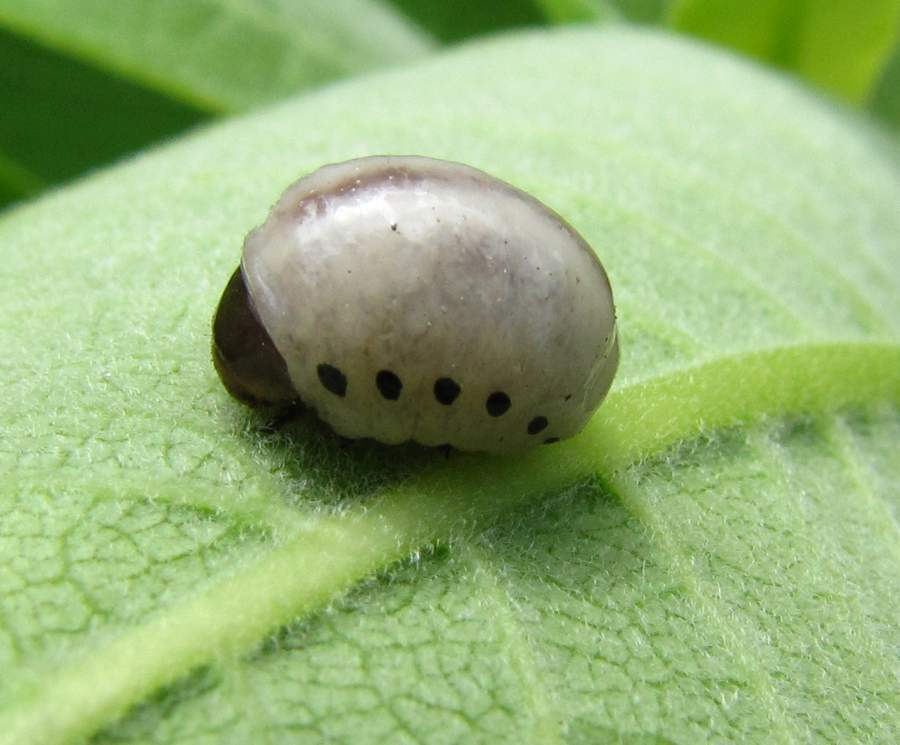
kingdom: Animalia
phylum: Arthropoda
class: Insecta
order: Coleoptera
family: Chrysomelidae
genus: Labidomera
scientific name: Labidomera clivicollis
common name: Swamp milkweed leaf beetle
